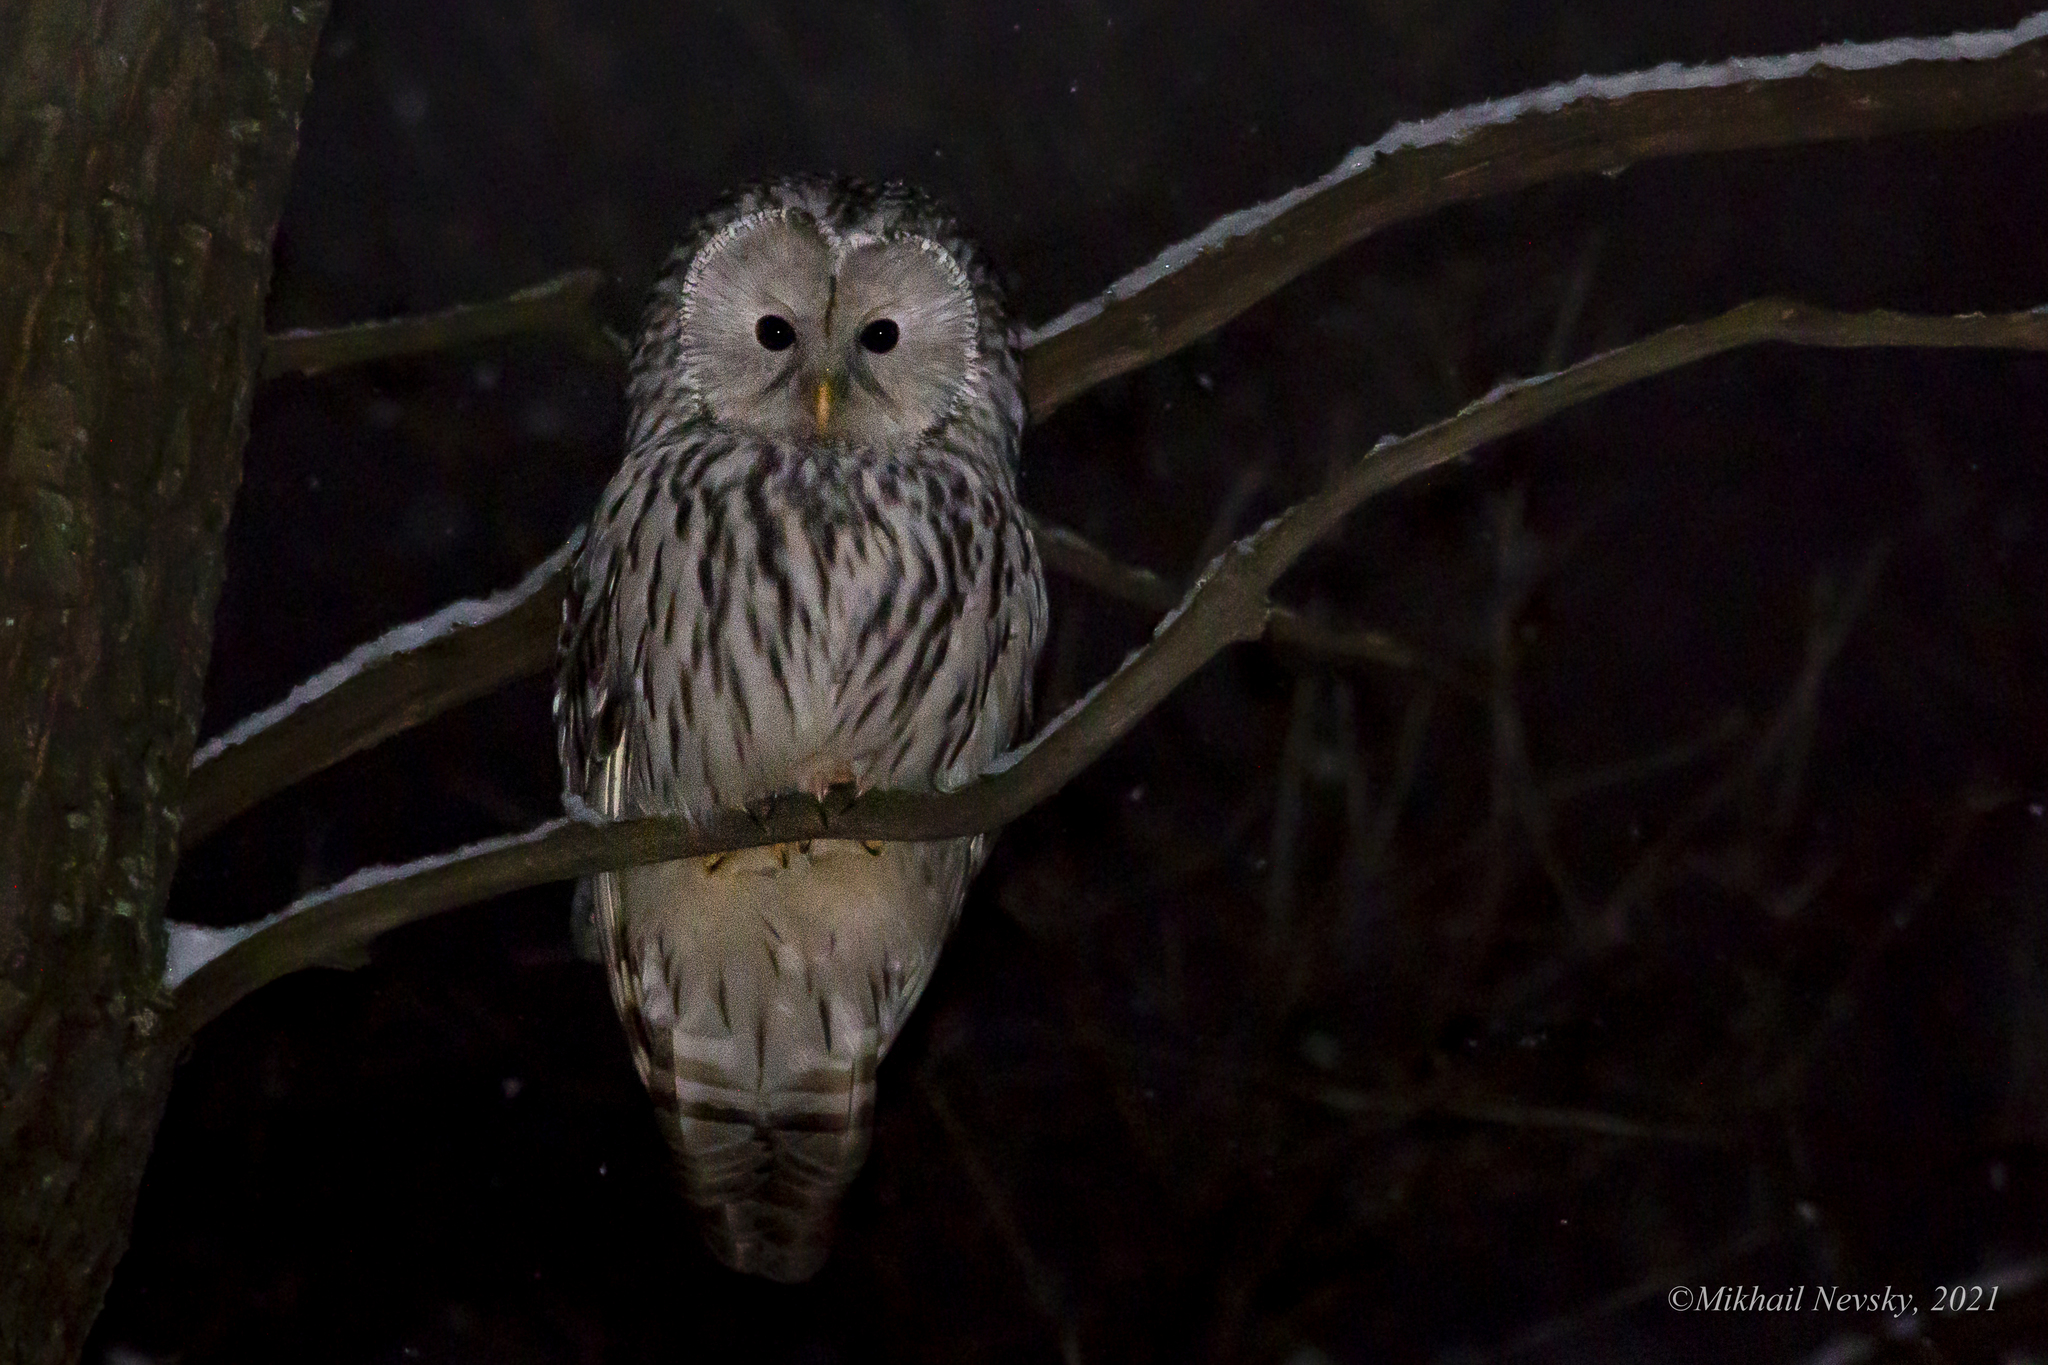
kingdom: Animalia
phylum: Chordata
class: Aves
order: Strigiformes
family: Strigidae
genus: Strix
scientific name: Strix uralensis
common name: Ural owl
